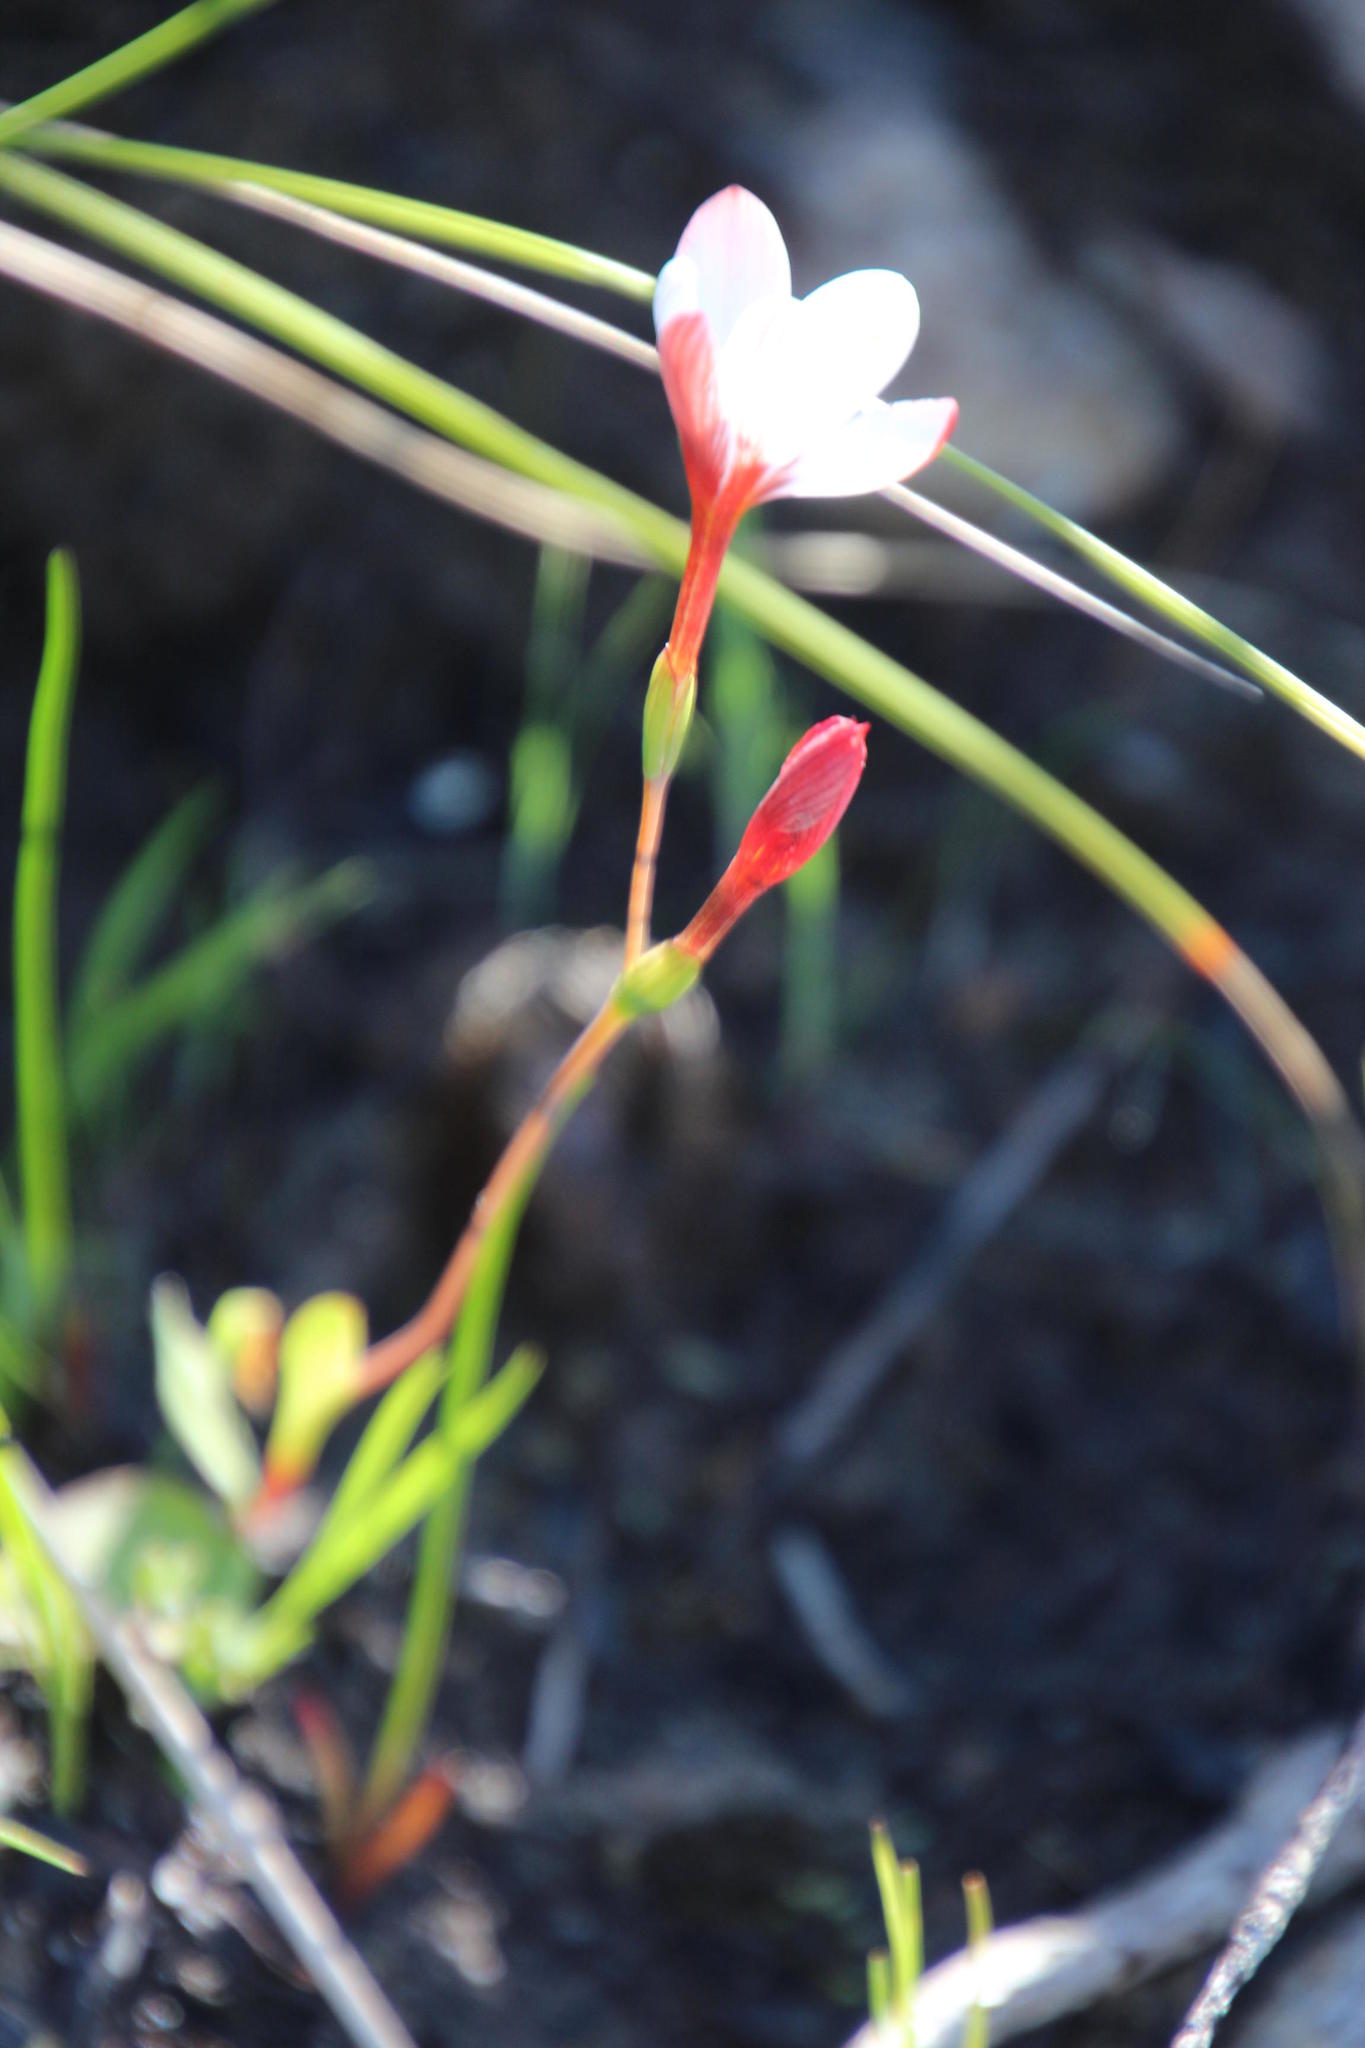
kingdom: Plantae
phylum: Tracheophyta
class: Liliopsida
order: Asparagales
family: Iridaceae
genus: Hesperantha
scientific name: Hesperantha falcata
